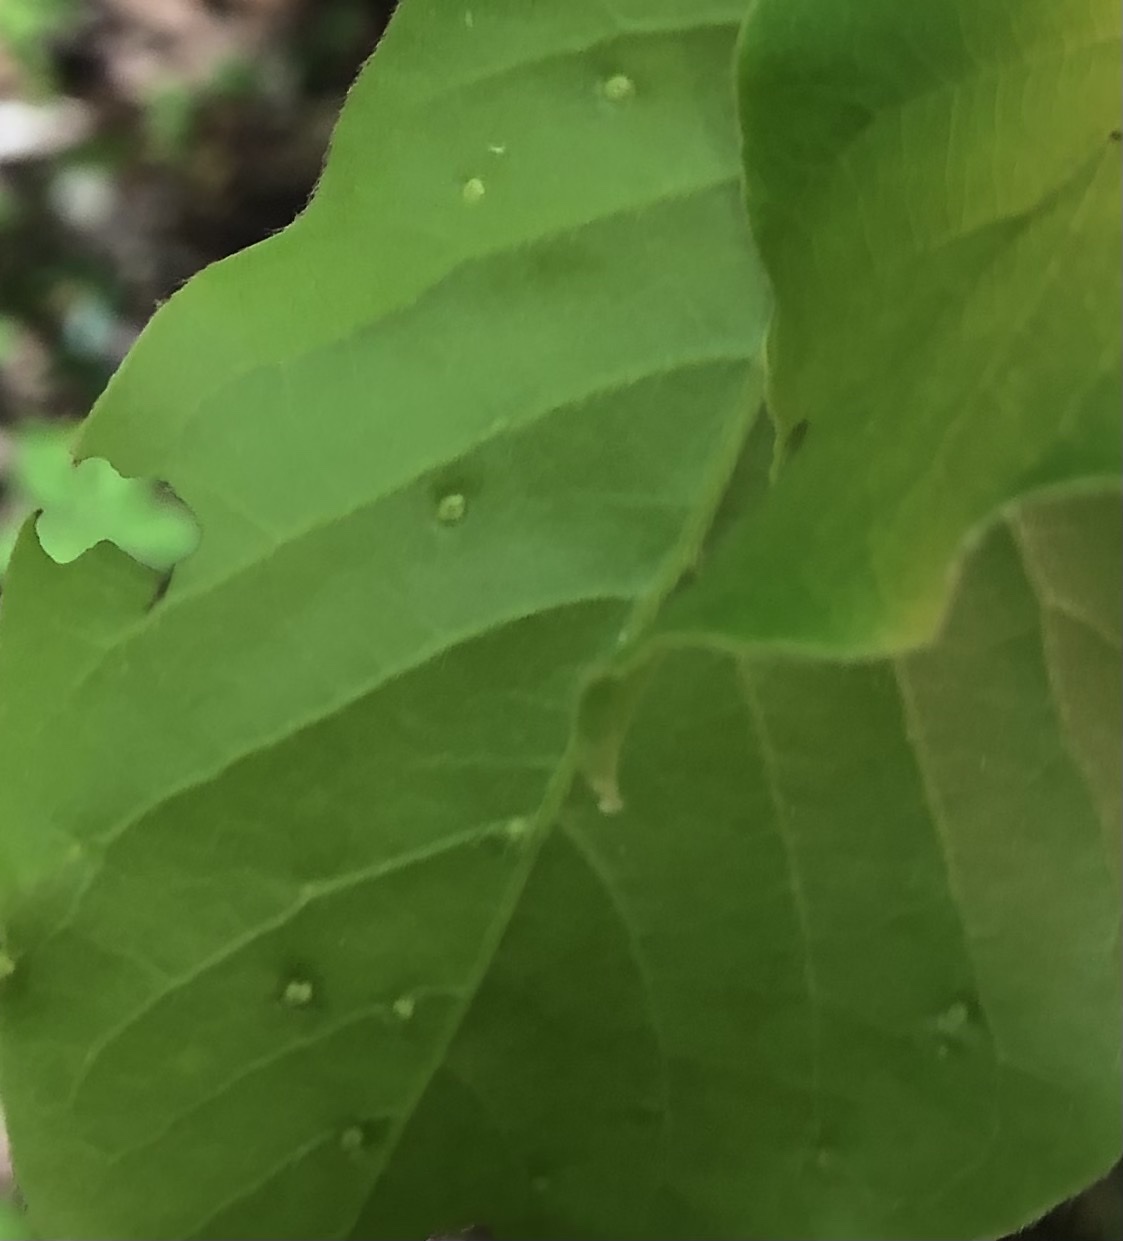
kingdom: Animalia
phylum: Arthropoda
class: Arachnida
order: Trombidiformes
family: Eriophyidae
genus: Aceria
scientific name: Aceria
